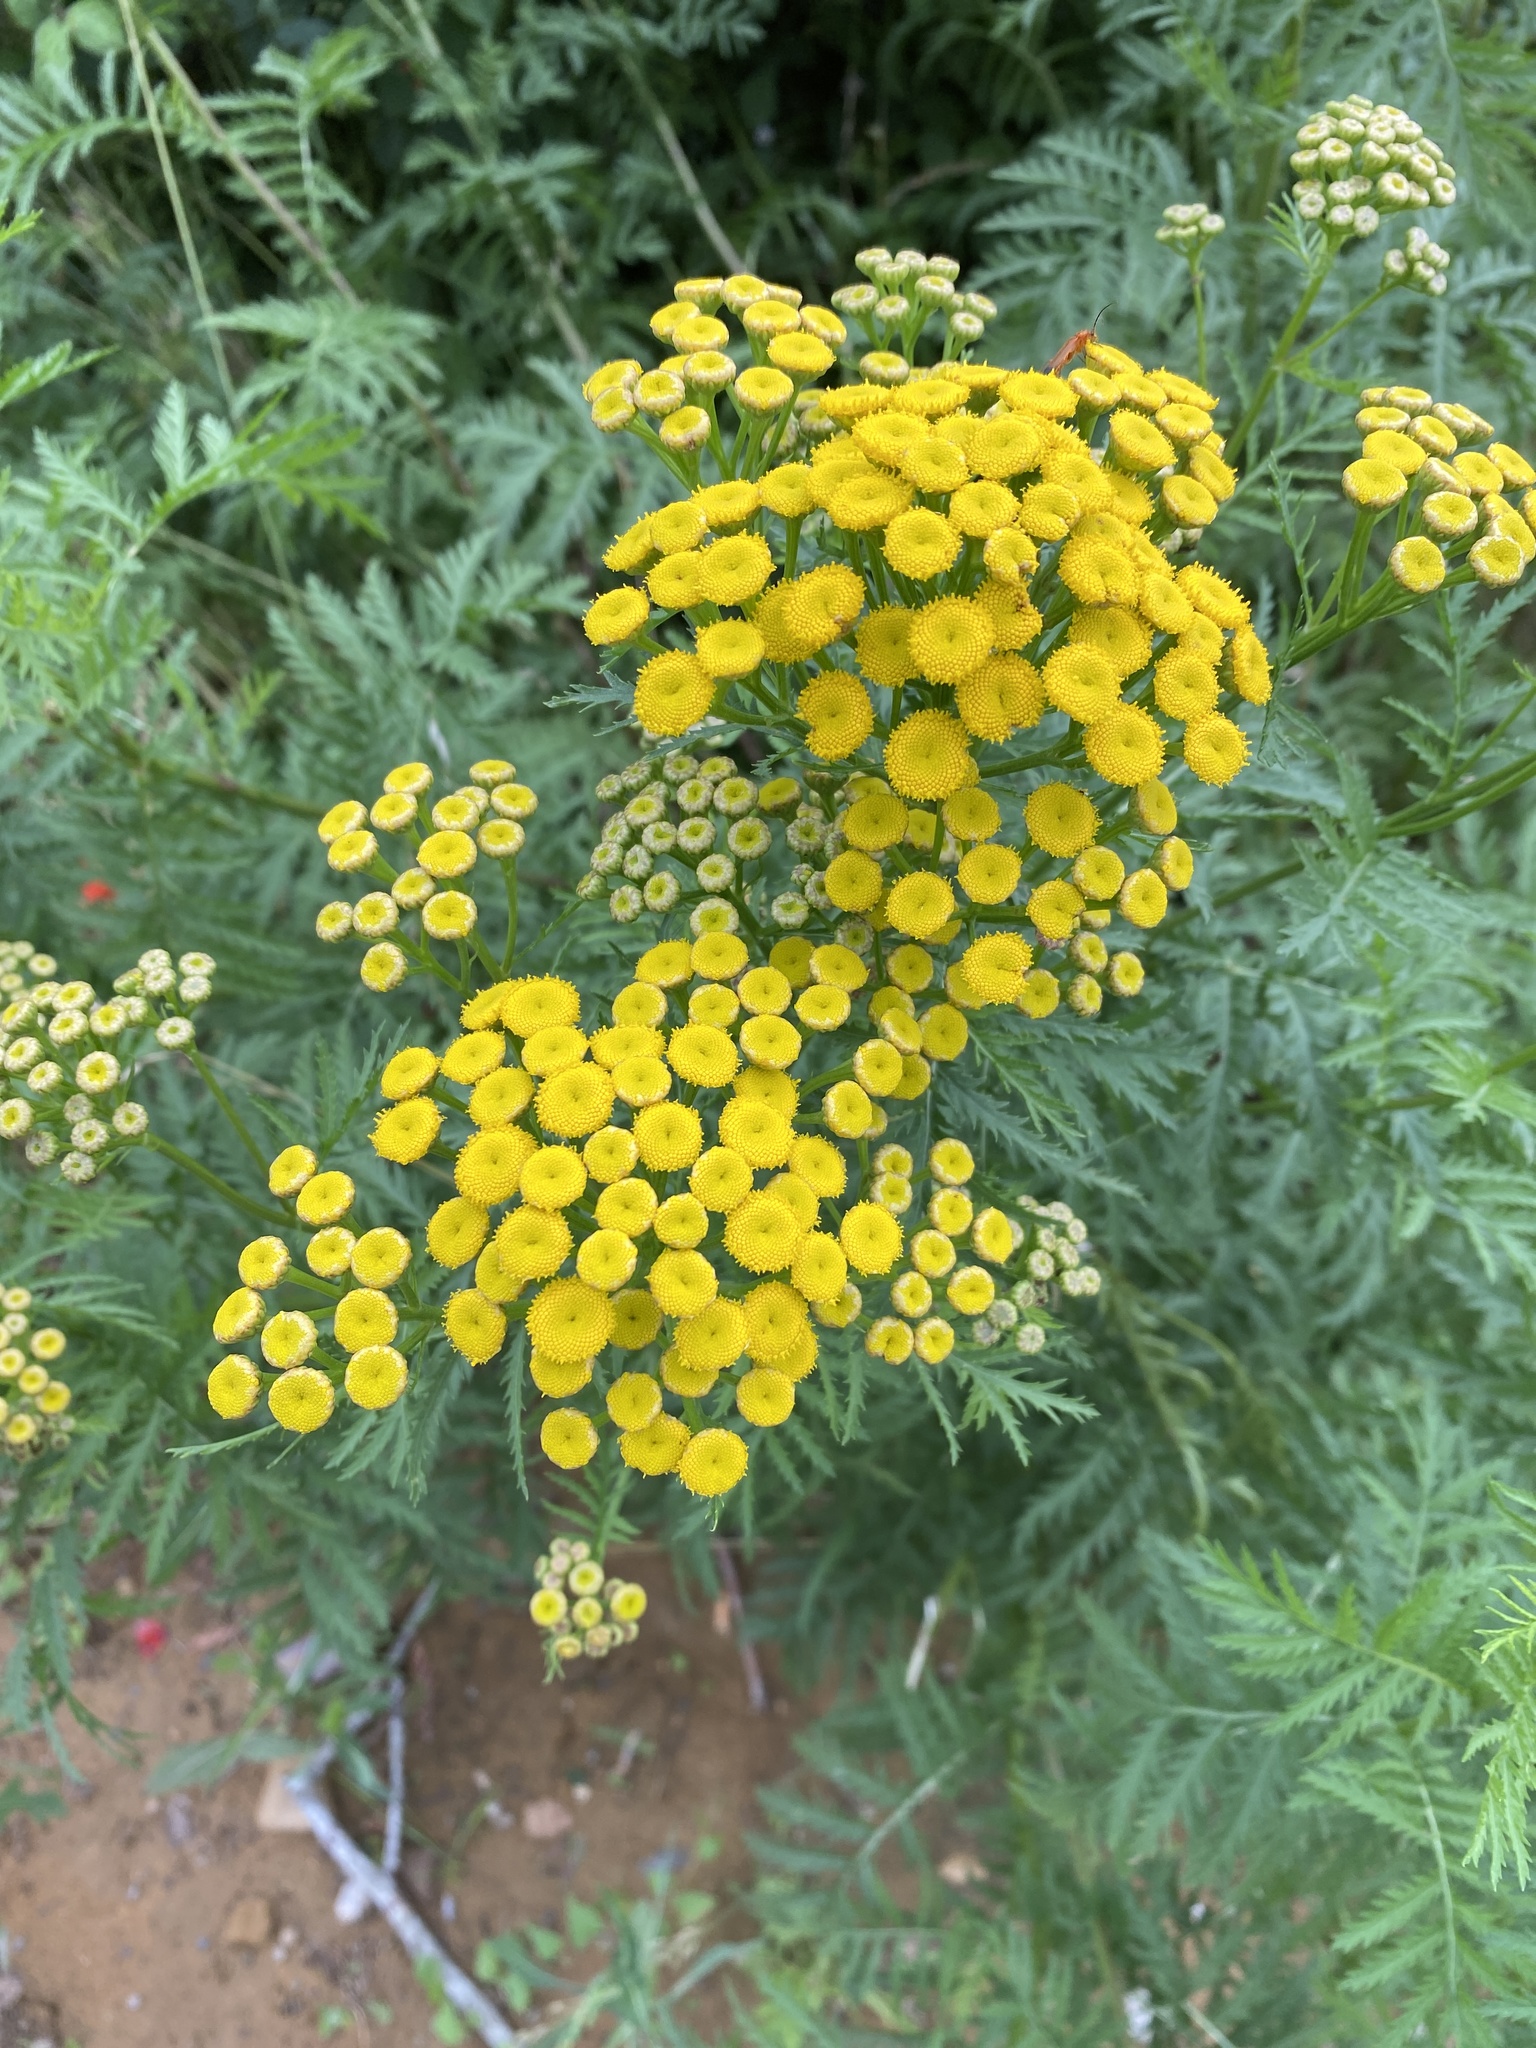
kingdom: Plantae
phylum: Tracheophyta
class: Magnoliopsida
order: Asterales
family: Asteraceae
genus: Tanacetum
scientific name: Tanacetum vulgare
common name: Common tansy
